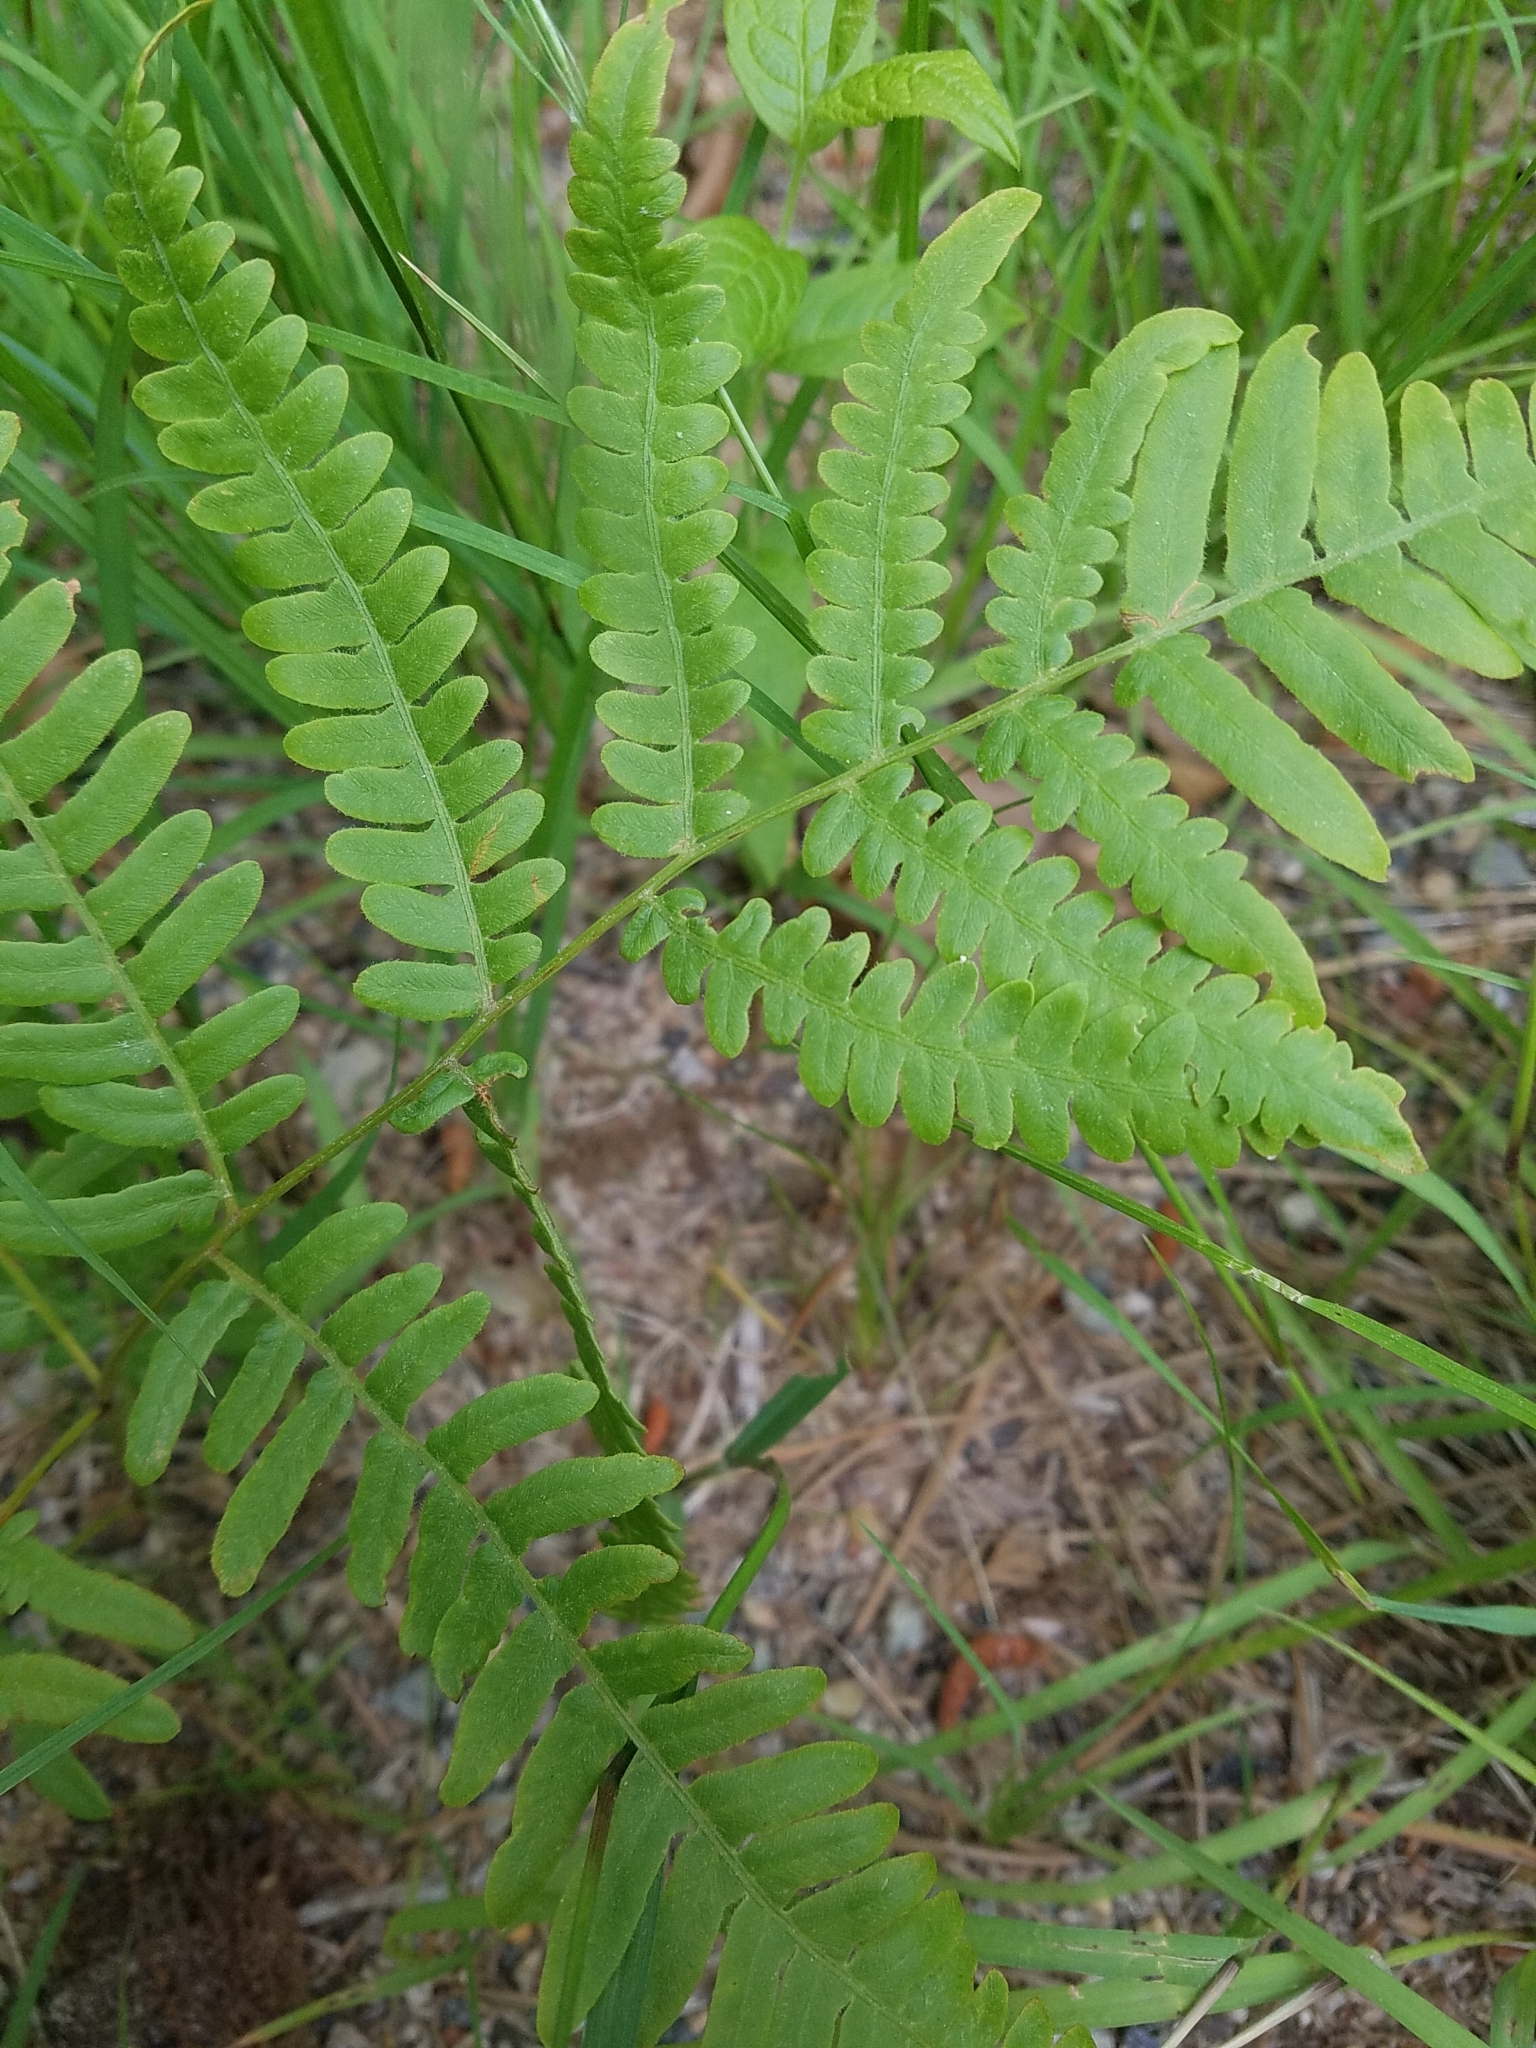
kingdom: Plantae
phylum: Tracheophyta
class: Polypodiopsida
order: Polypodiales
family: Dennstaedtiaceae
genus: Pteridium
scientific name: Pteridium aquilinum
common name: Bracken
